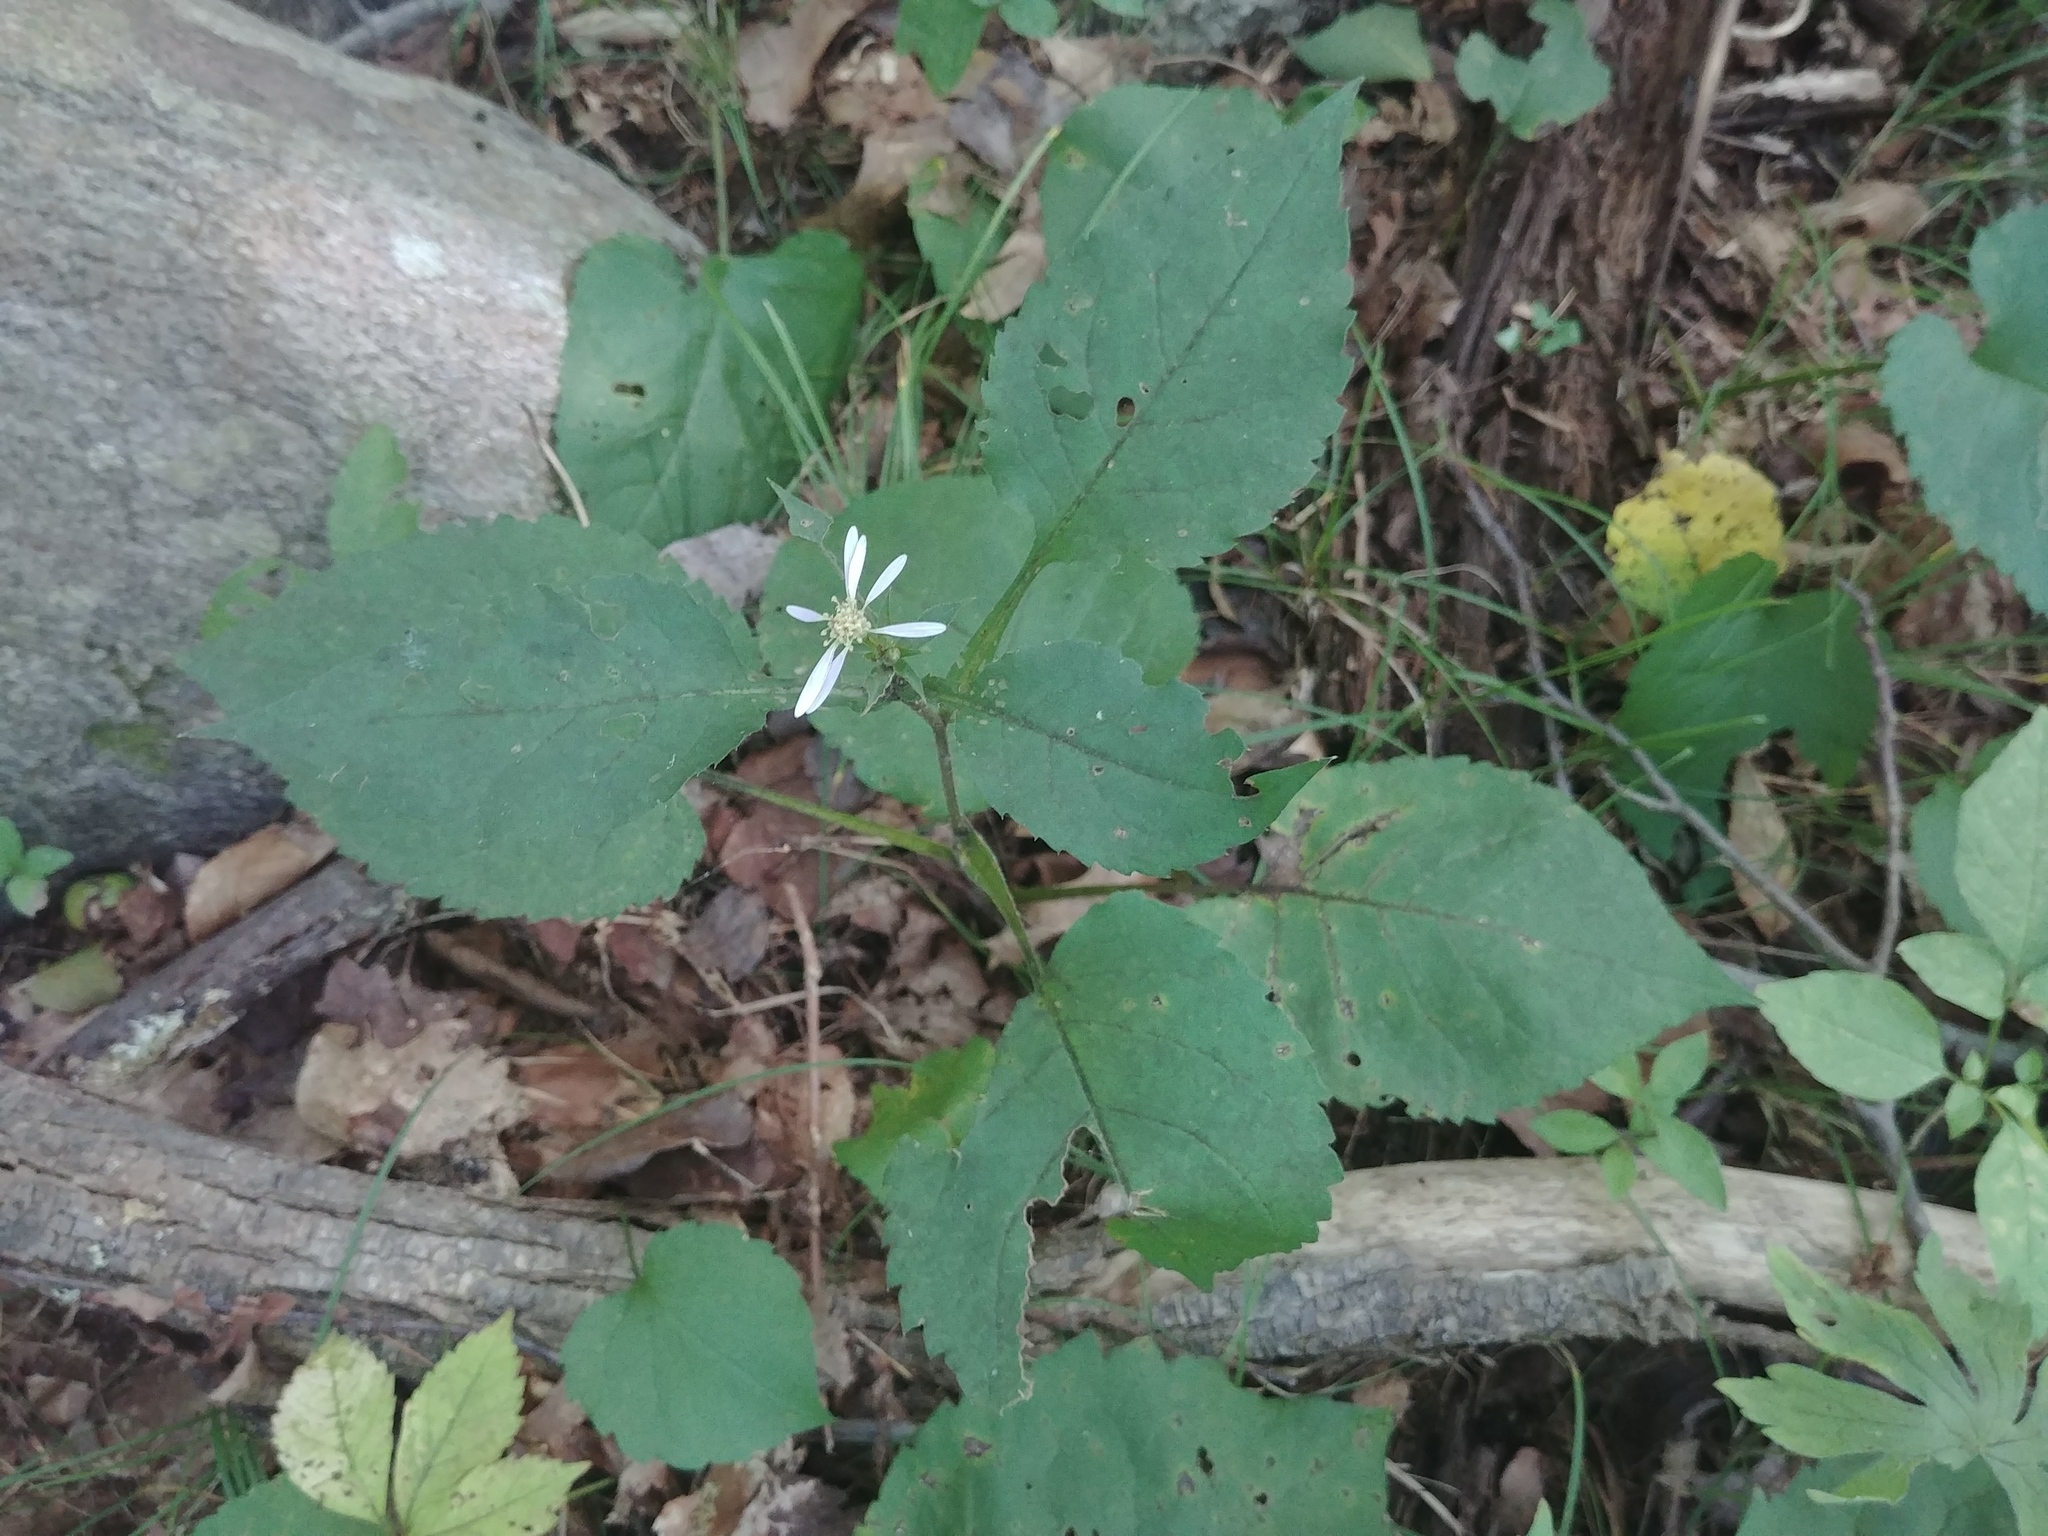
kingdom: Plantae
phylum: Tracheophyta
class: Magnoliopsida
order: Asterales
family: Asteraceae
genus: Eurybia
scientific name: Eurybia divaricata
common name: White wood aster
